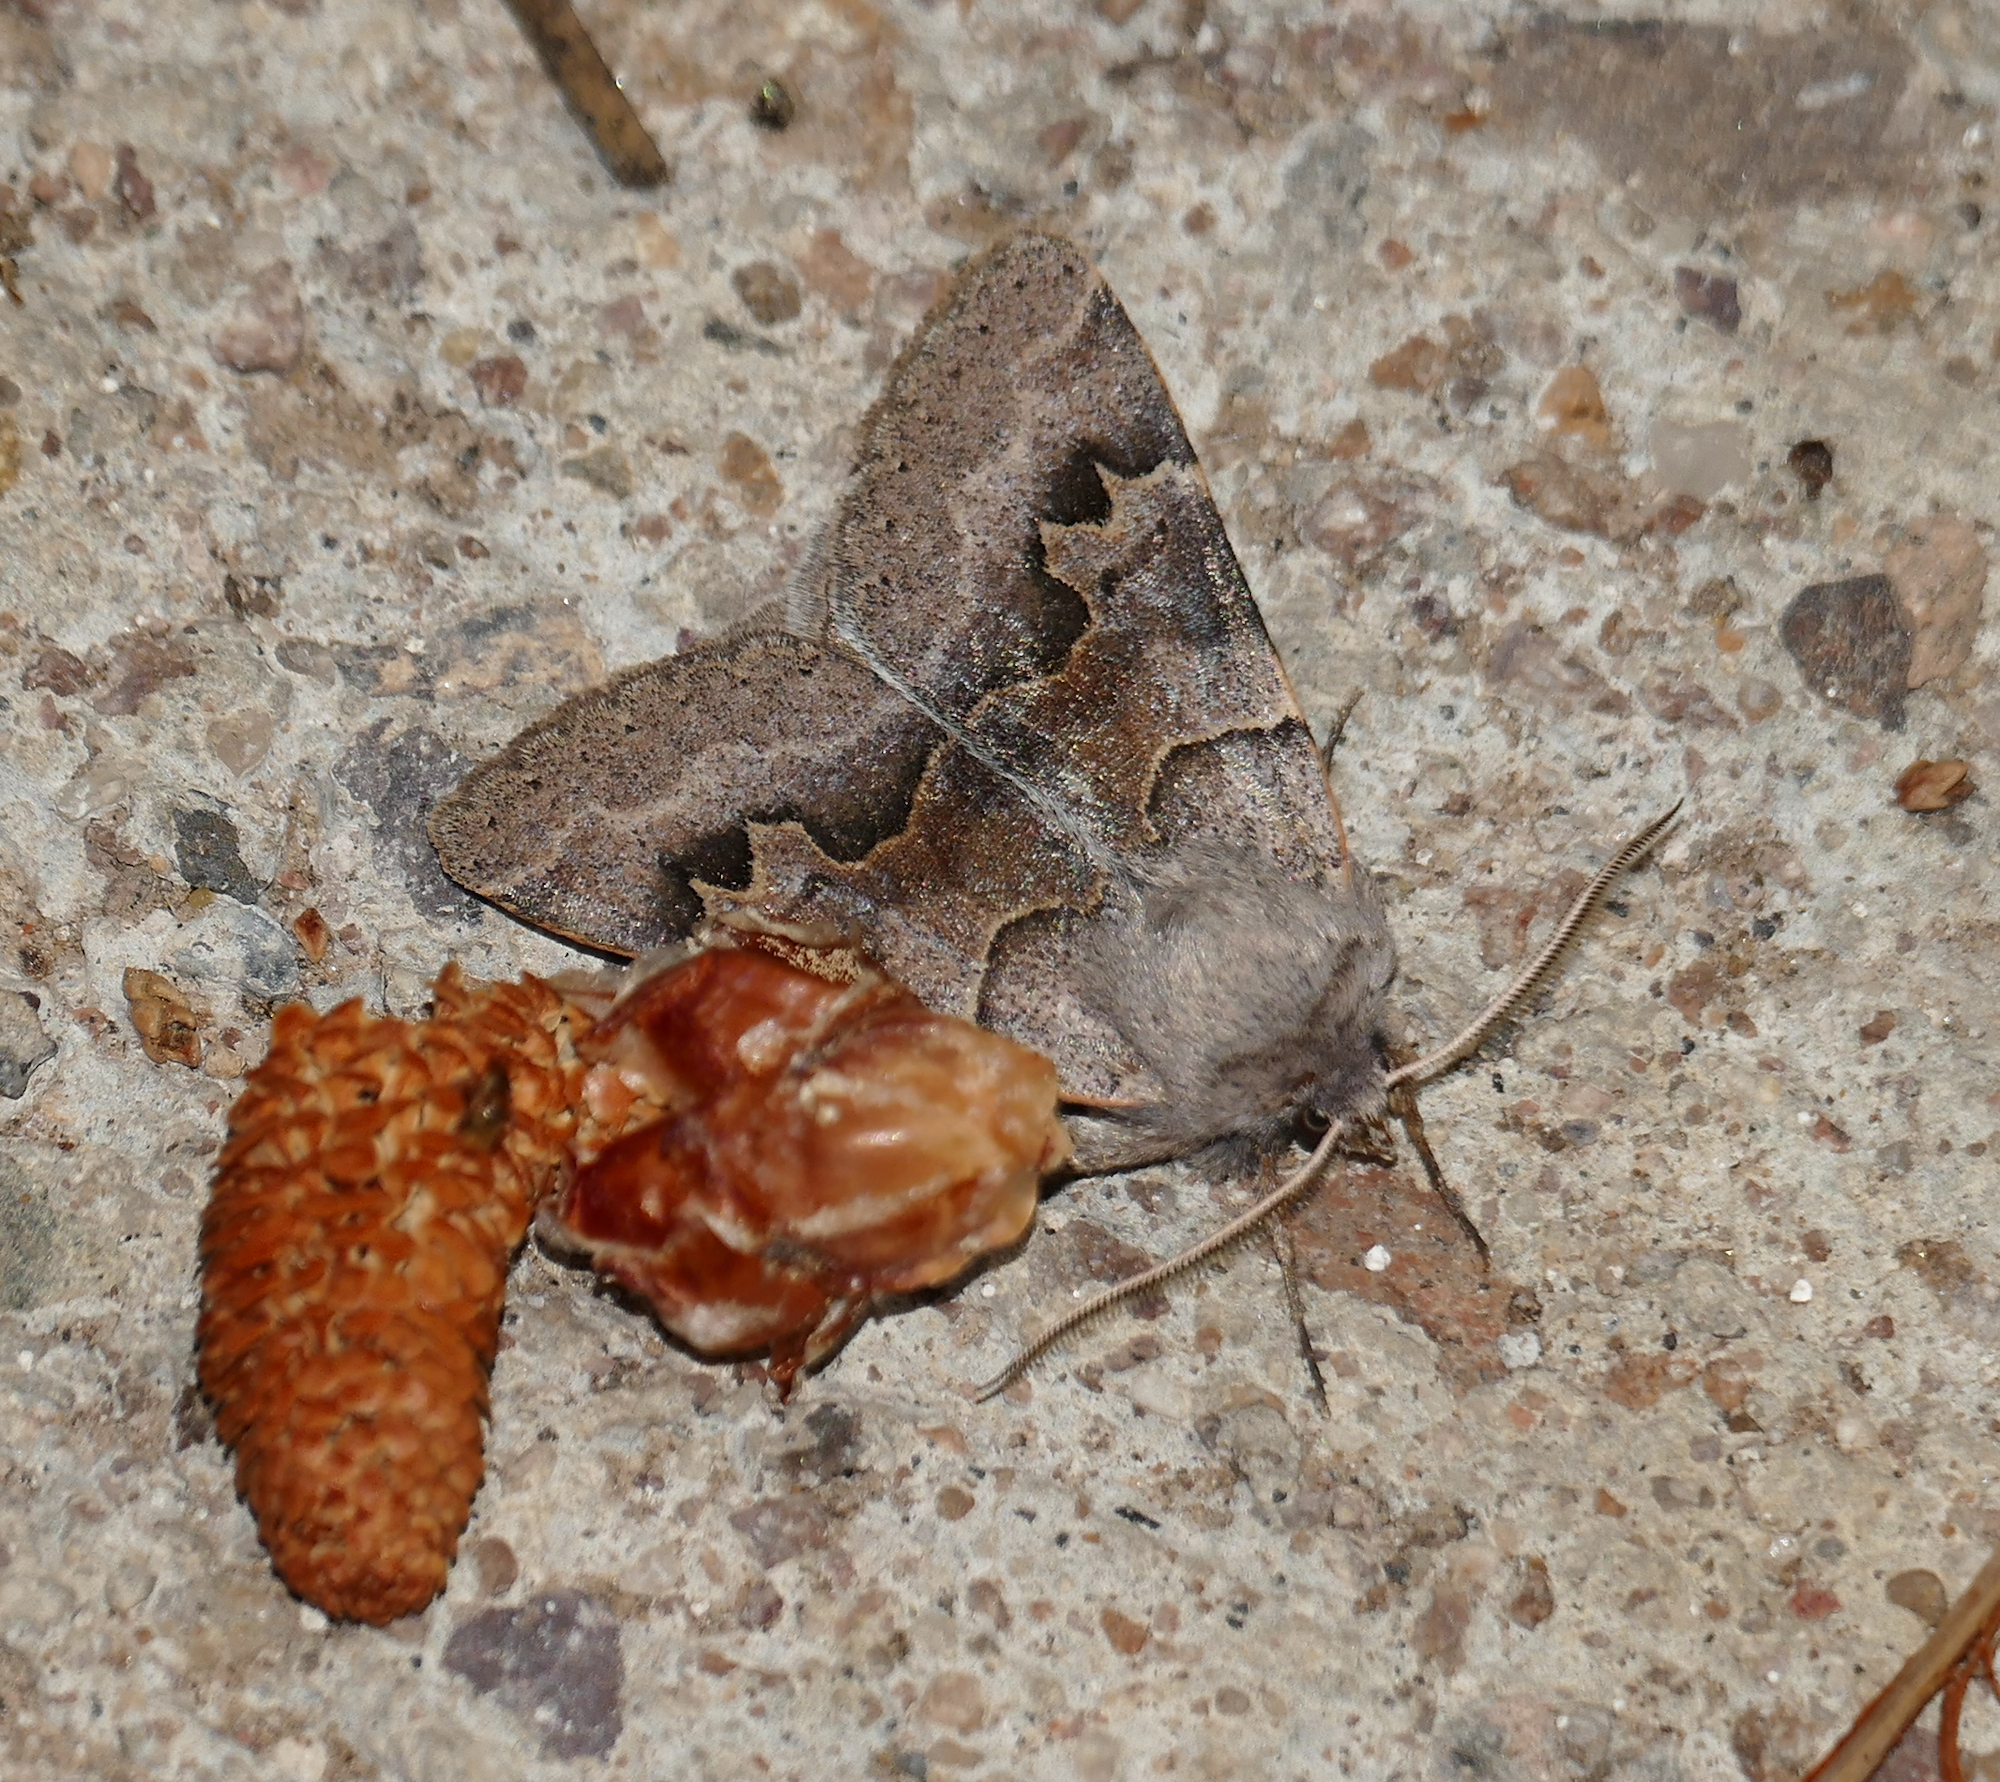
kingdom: Animalia
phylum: Arthropoda
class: Insecta
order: Lepidoptera
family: Erebidae
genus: Ulosyneda
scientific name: Ulosyneda valens
